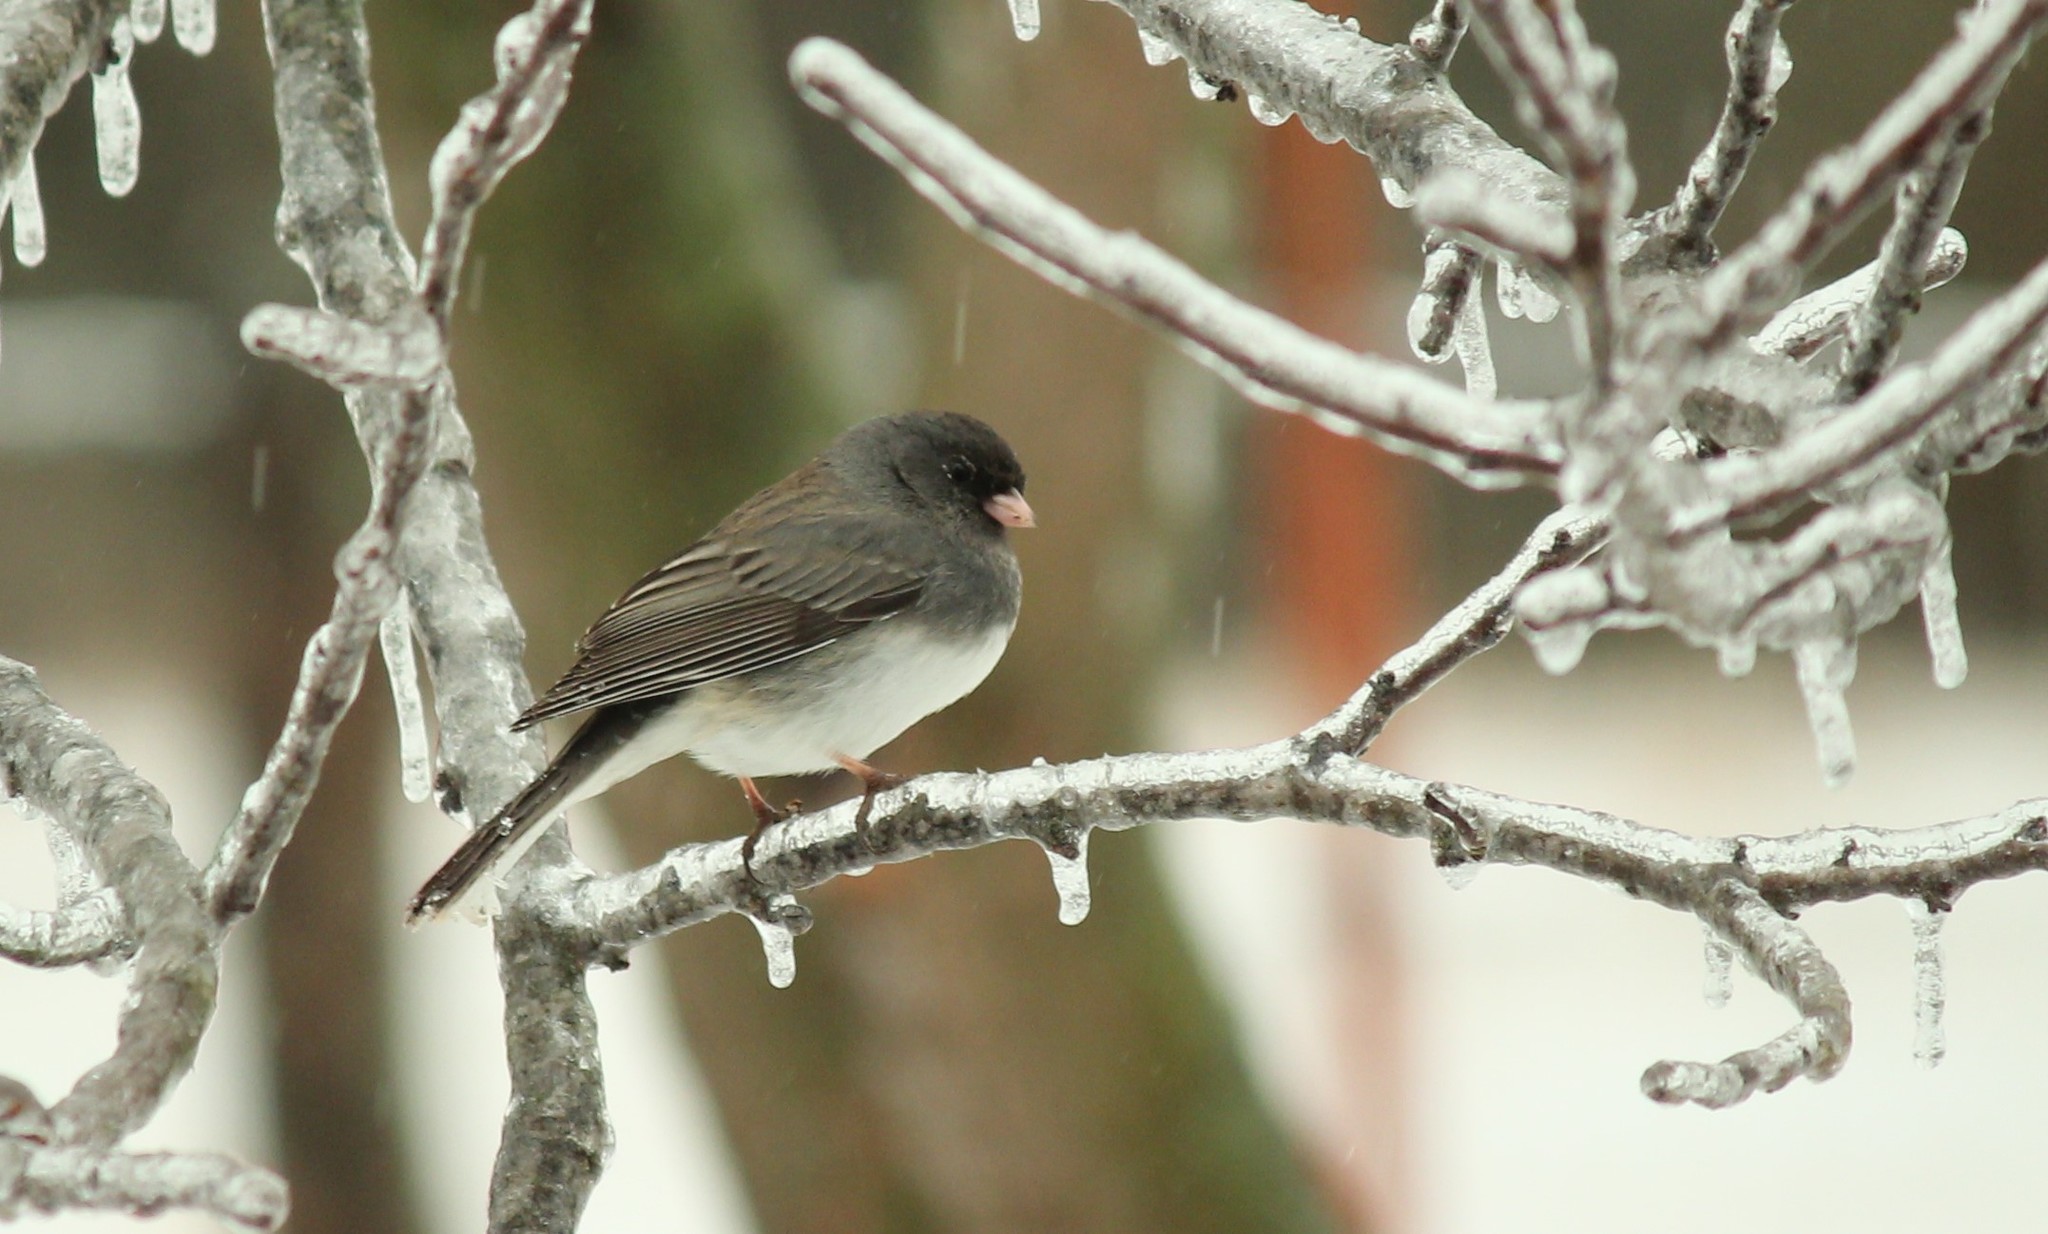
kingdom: Animalia
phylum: Chordata
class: Aves
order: Passeriformes
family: Passerellidae
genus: Junco
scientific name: Junco hyemalis
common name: Dark-eyed junco
